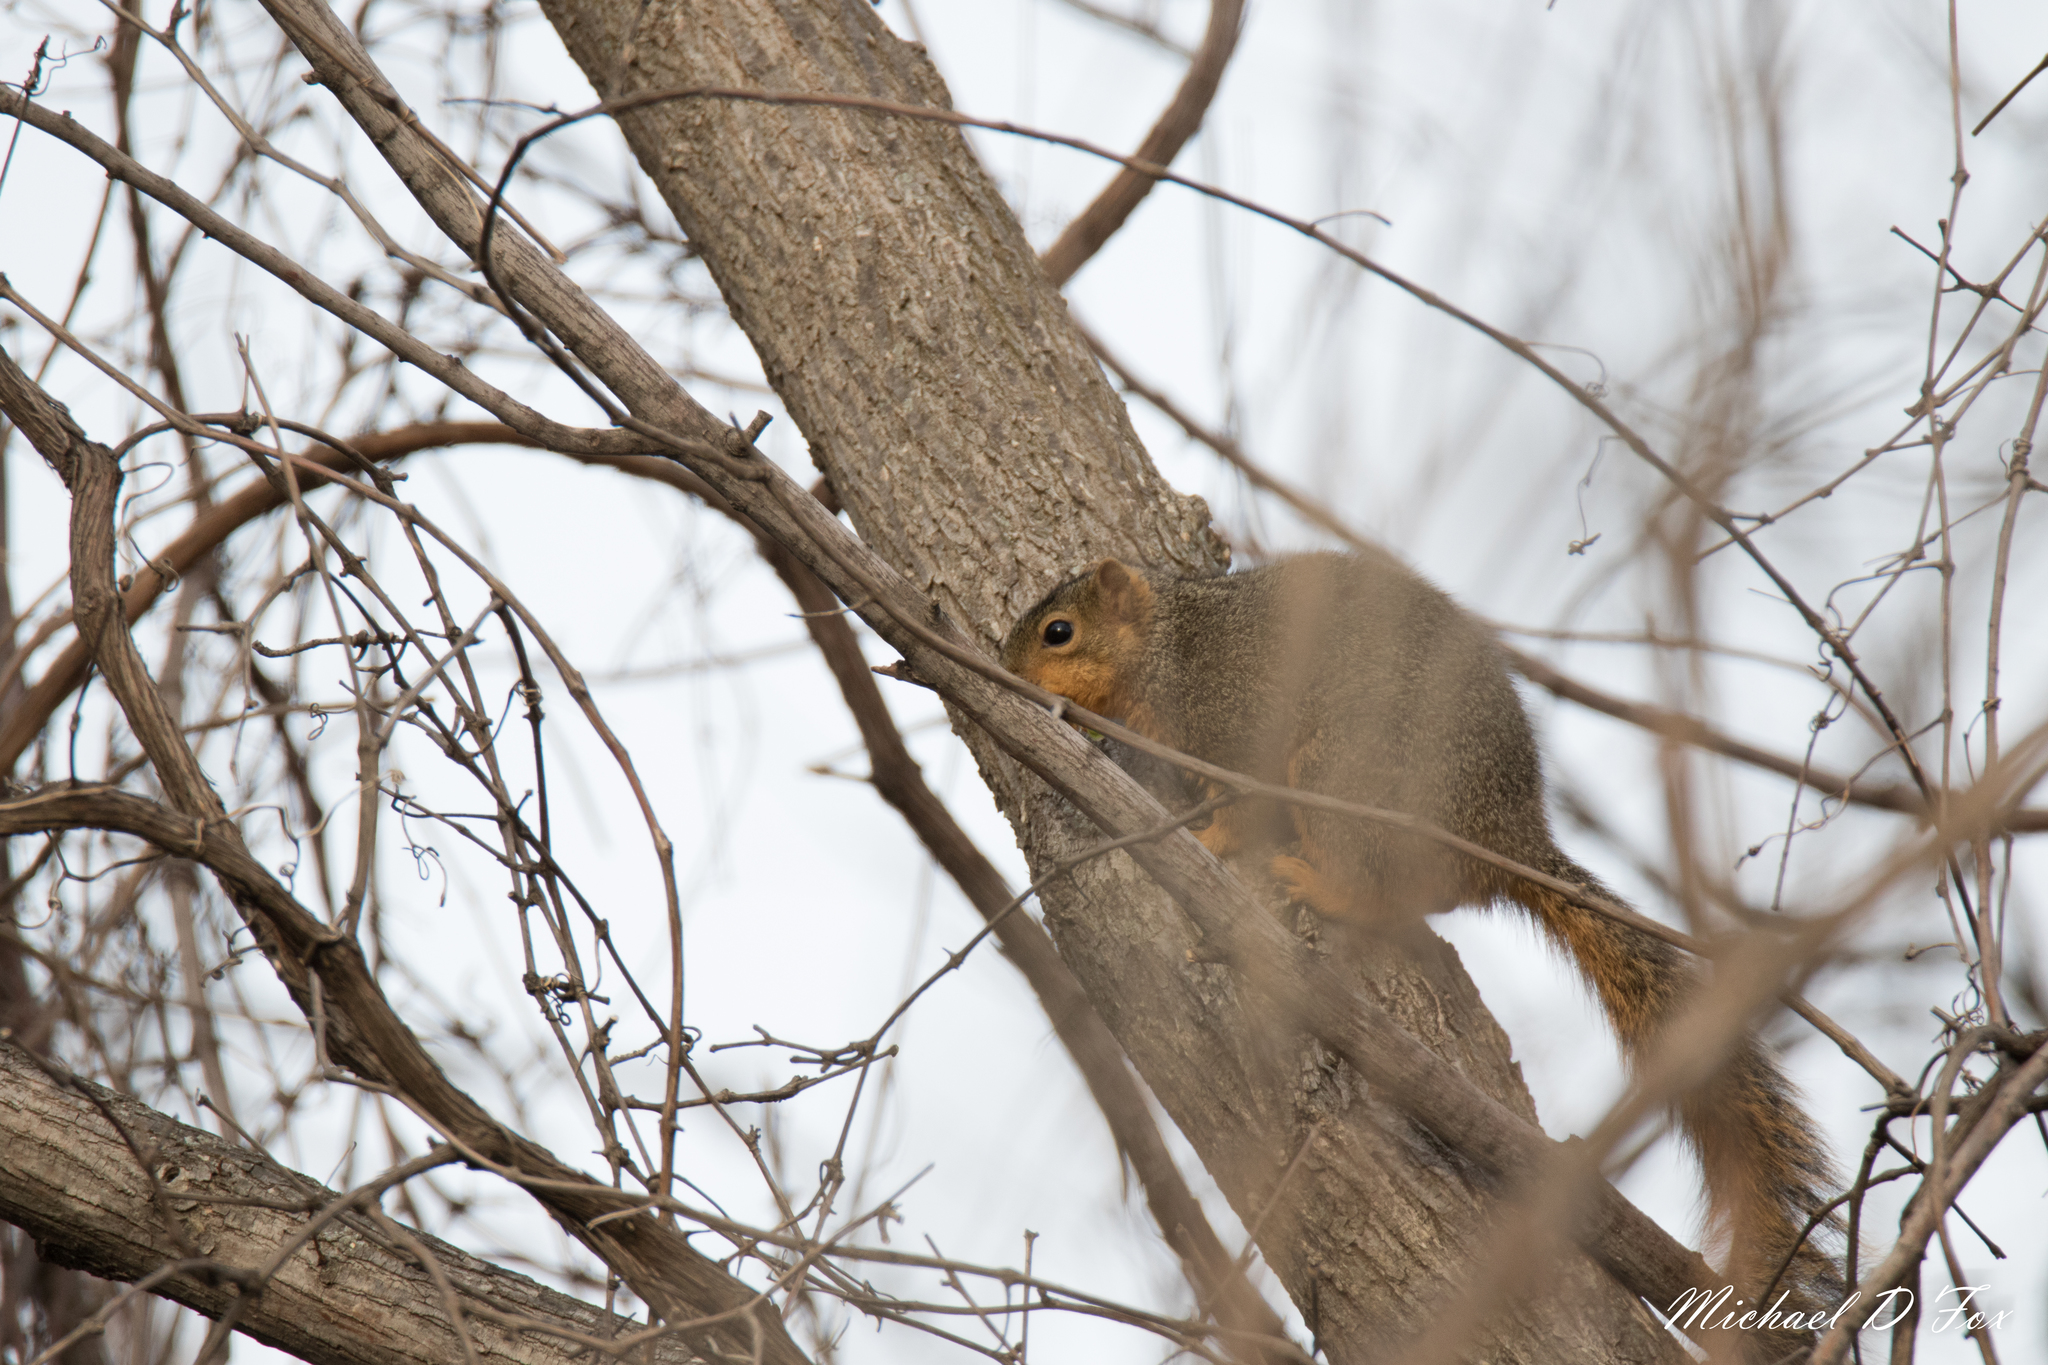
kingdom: Animalia
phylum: Chordata
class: Mammalia
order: Rodentia
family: Sciuridae
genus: Sciurus
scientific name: Sciurus niger
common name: Fox squirrel
